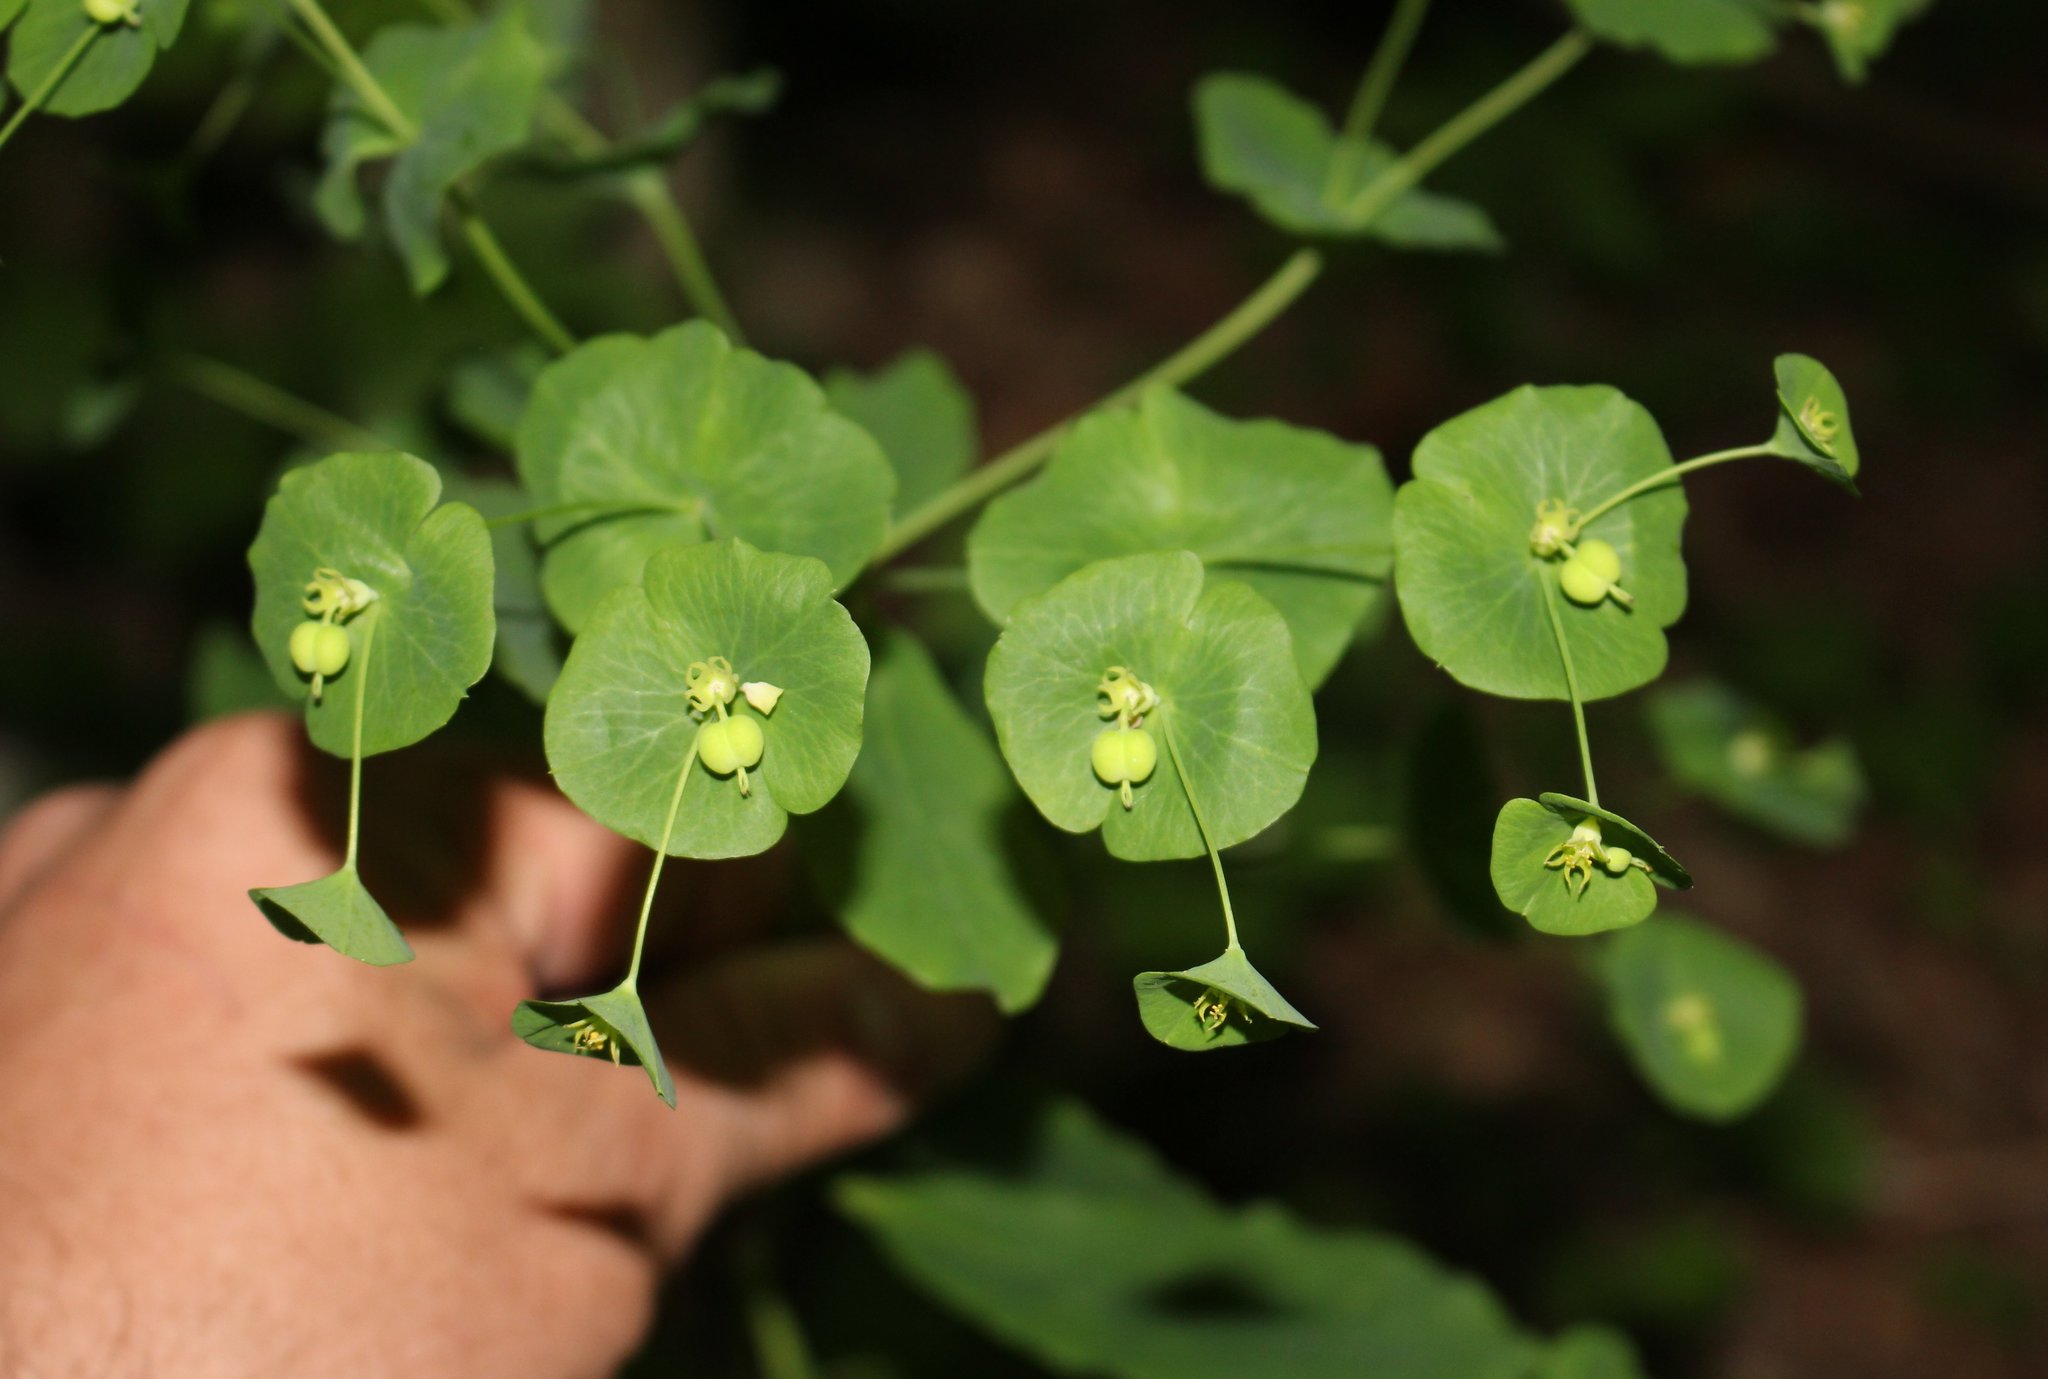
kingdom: Plantae
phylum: Tracheophyta
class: Magnoliopsida
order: Malpighiales
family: Euphorbiaceae
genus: Euphorbia
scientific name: Euphorbia macroceras
